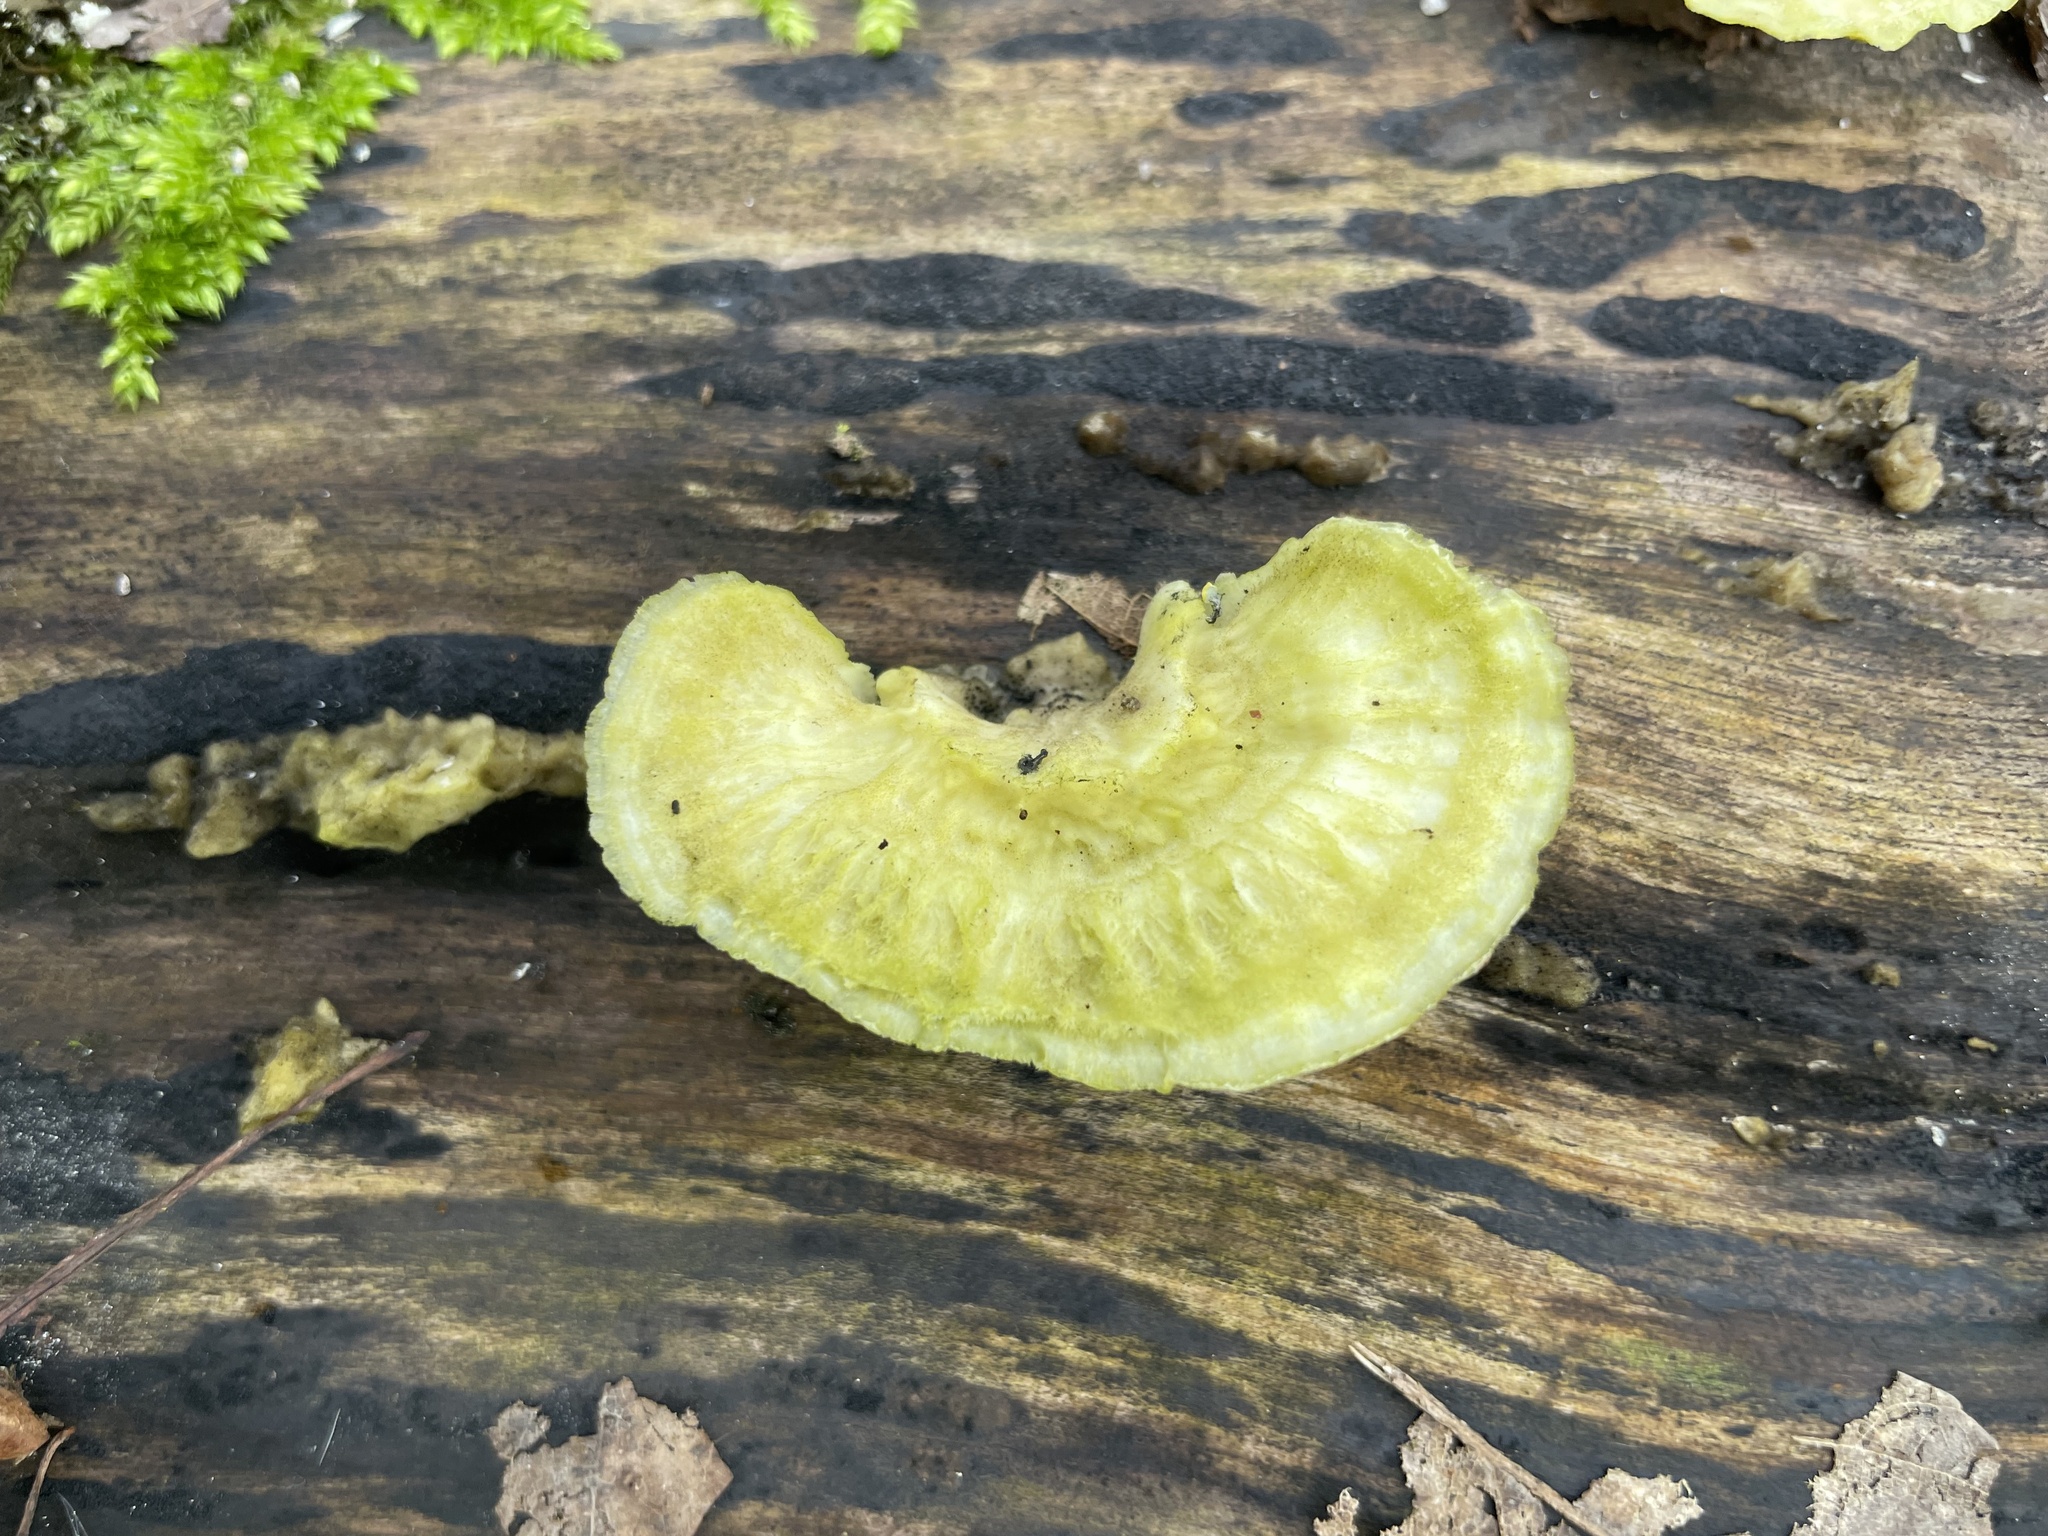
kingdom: Fungi
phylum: Basidiomycota
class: Agaricomycetes
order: Polyporales
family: Polyporaceae
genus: Trametes
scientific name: Trametes hirsuta
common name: Hairy bracket
